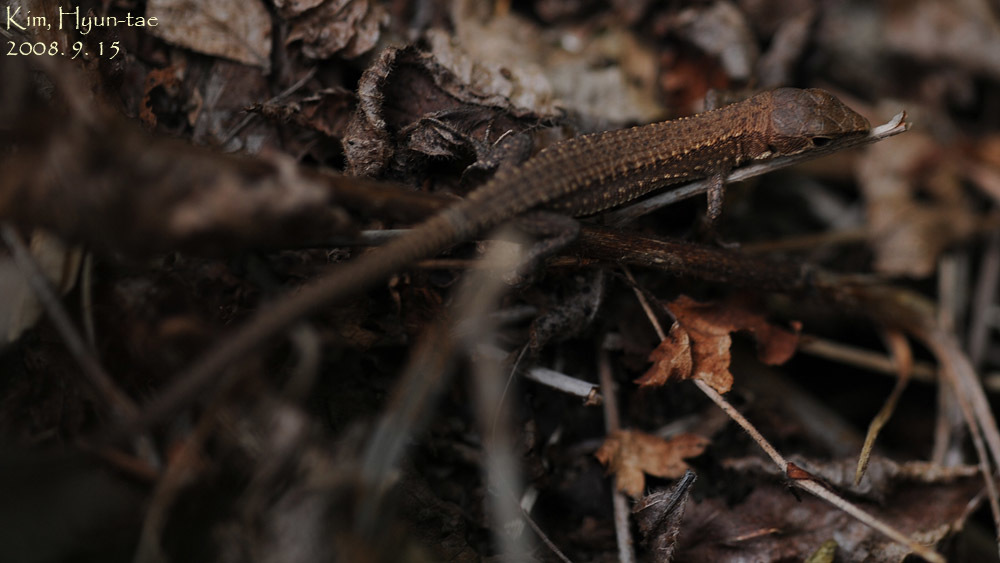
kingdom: Animalia
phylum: Chordata
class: Squamata
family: Lacertidae
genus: Takydromus
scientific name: Takydromus amurensis
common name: Amur grass lizard
